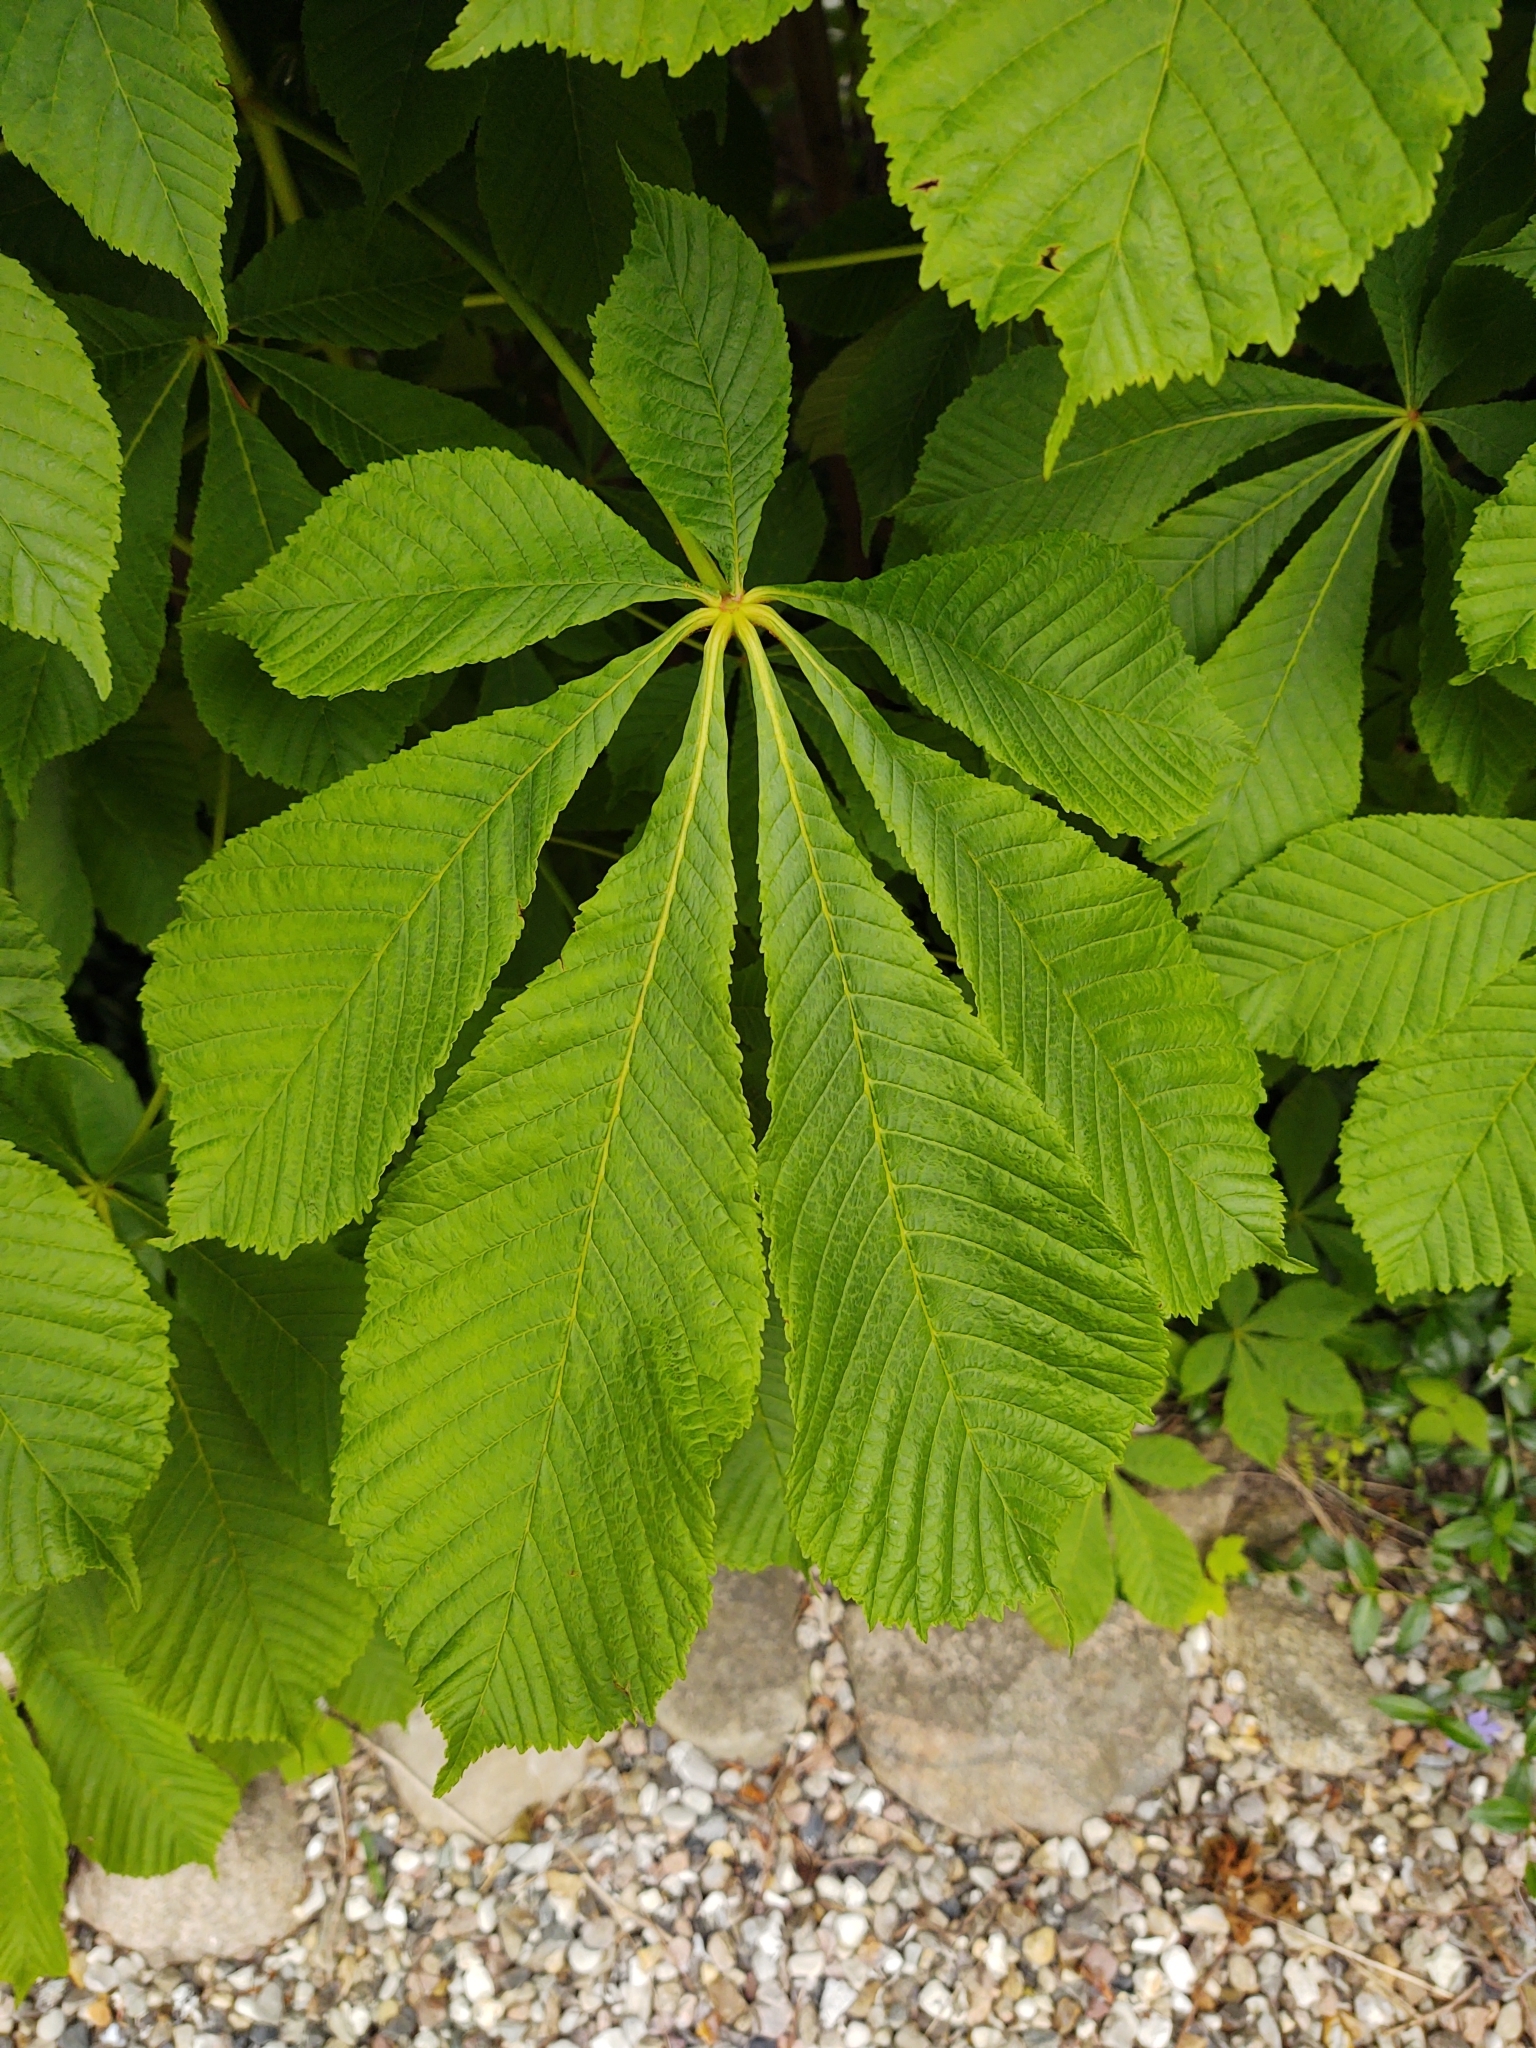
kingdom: Plantae
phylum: Tracheophyta
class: Magnoliopsida
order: Sapindales
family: Sapindaceae
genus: Aesculus
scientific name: Aesculus hippocastanum
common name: Horse-chestnut
